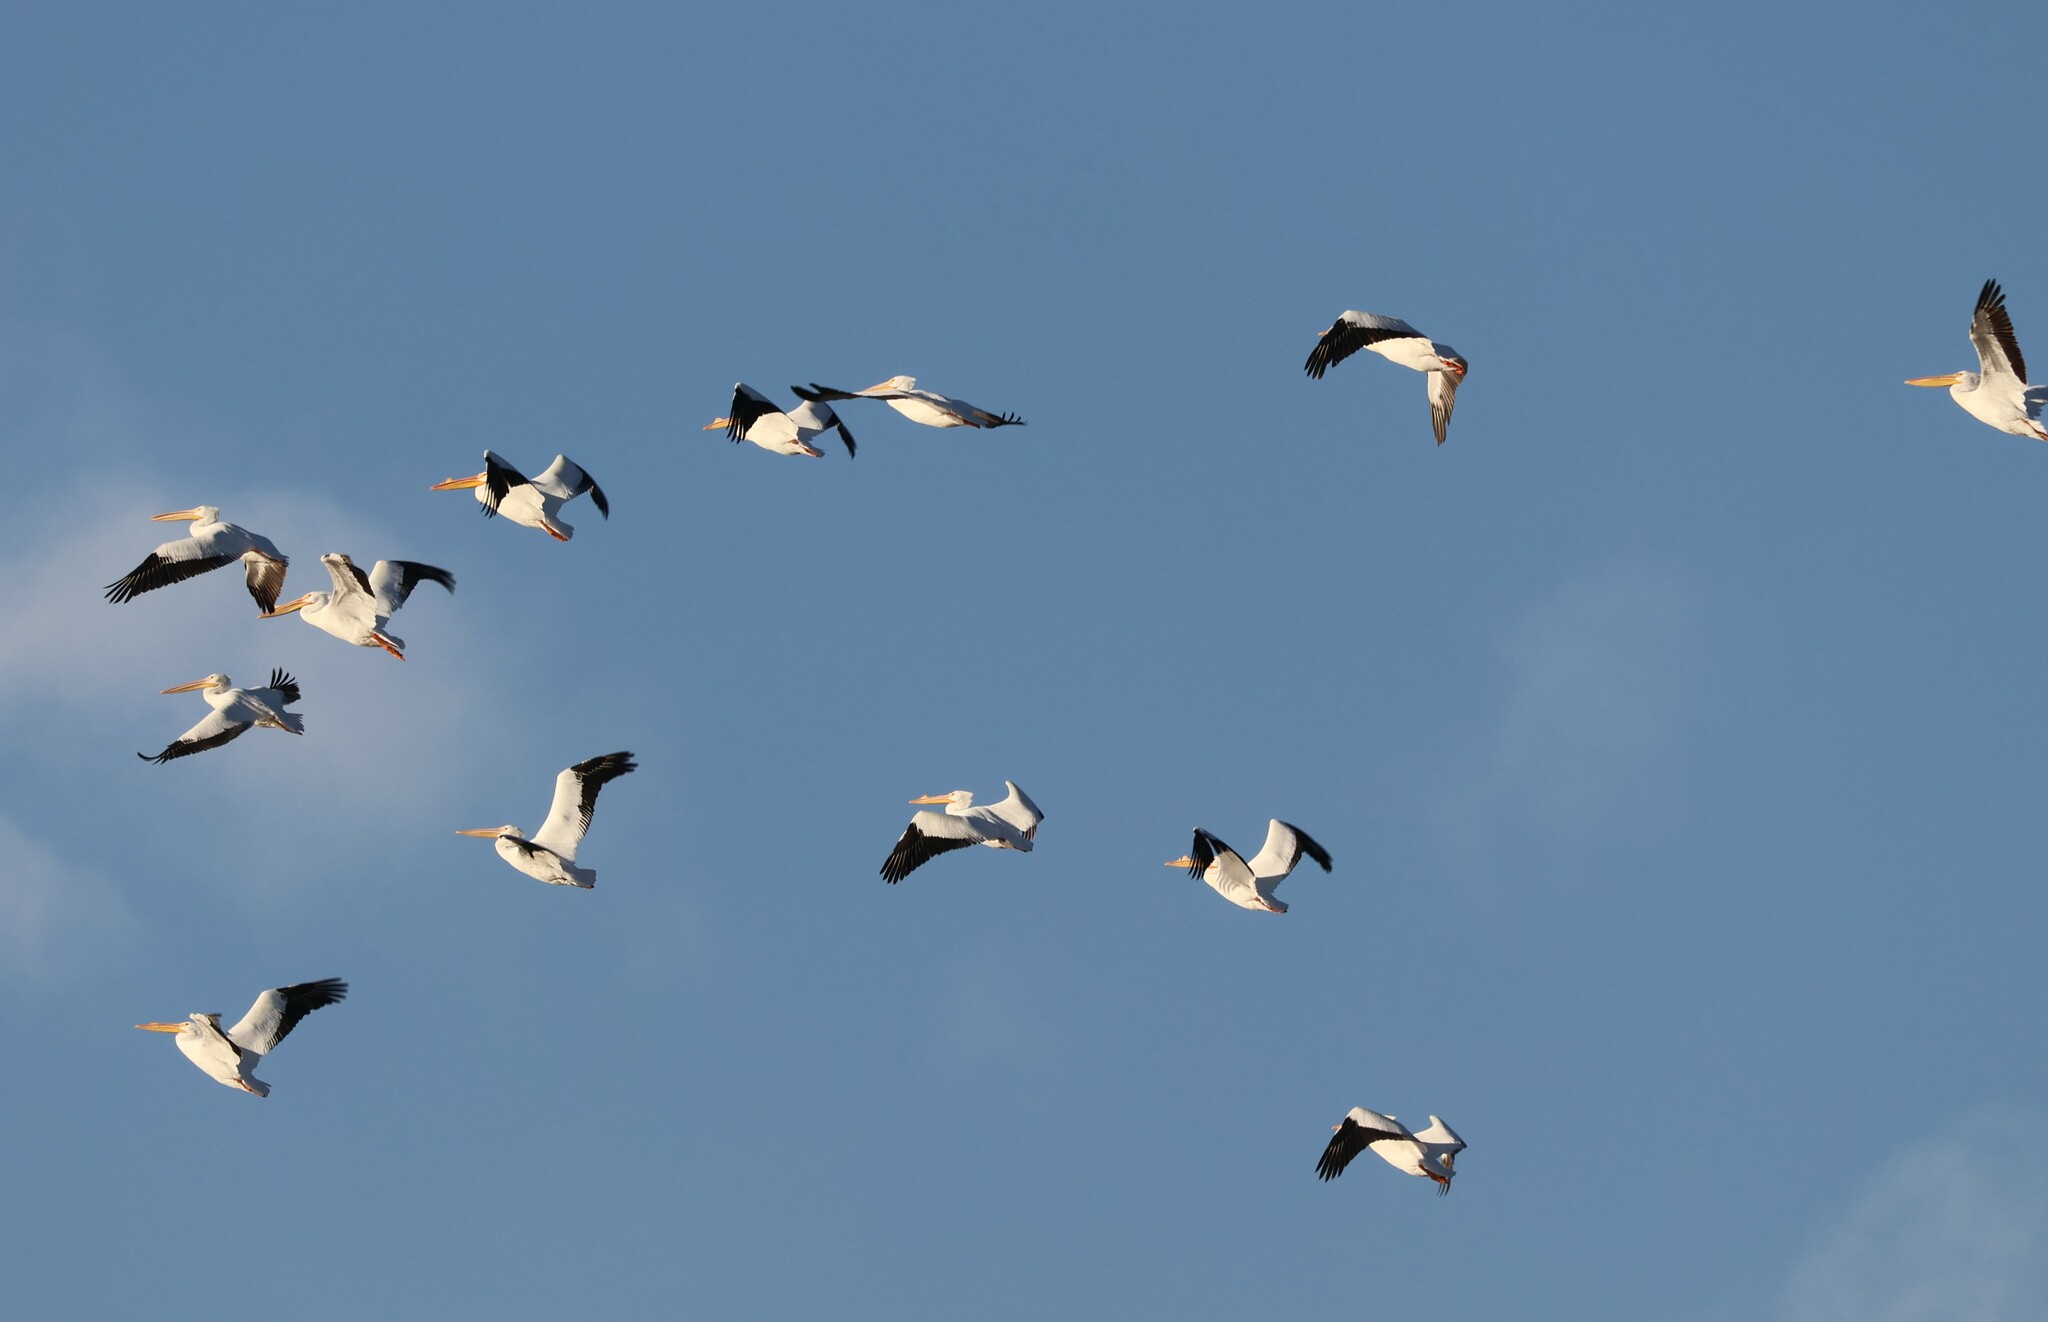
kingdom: Animalia
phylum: Chordata
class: Aves
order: Pelecaniformes
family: Pelecanidae
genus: Pelecanus
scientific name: Pelecanus erythrorhynchos
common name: American white pelican
